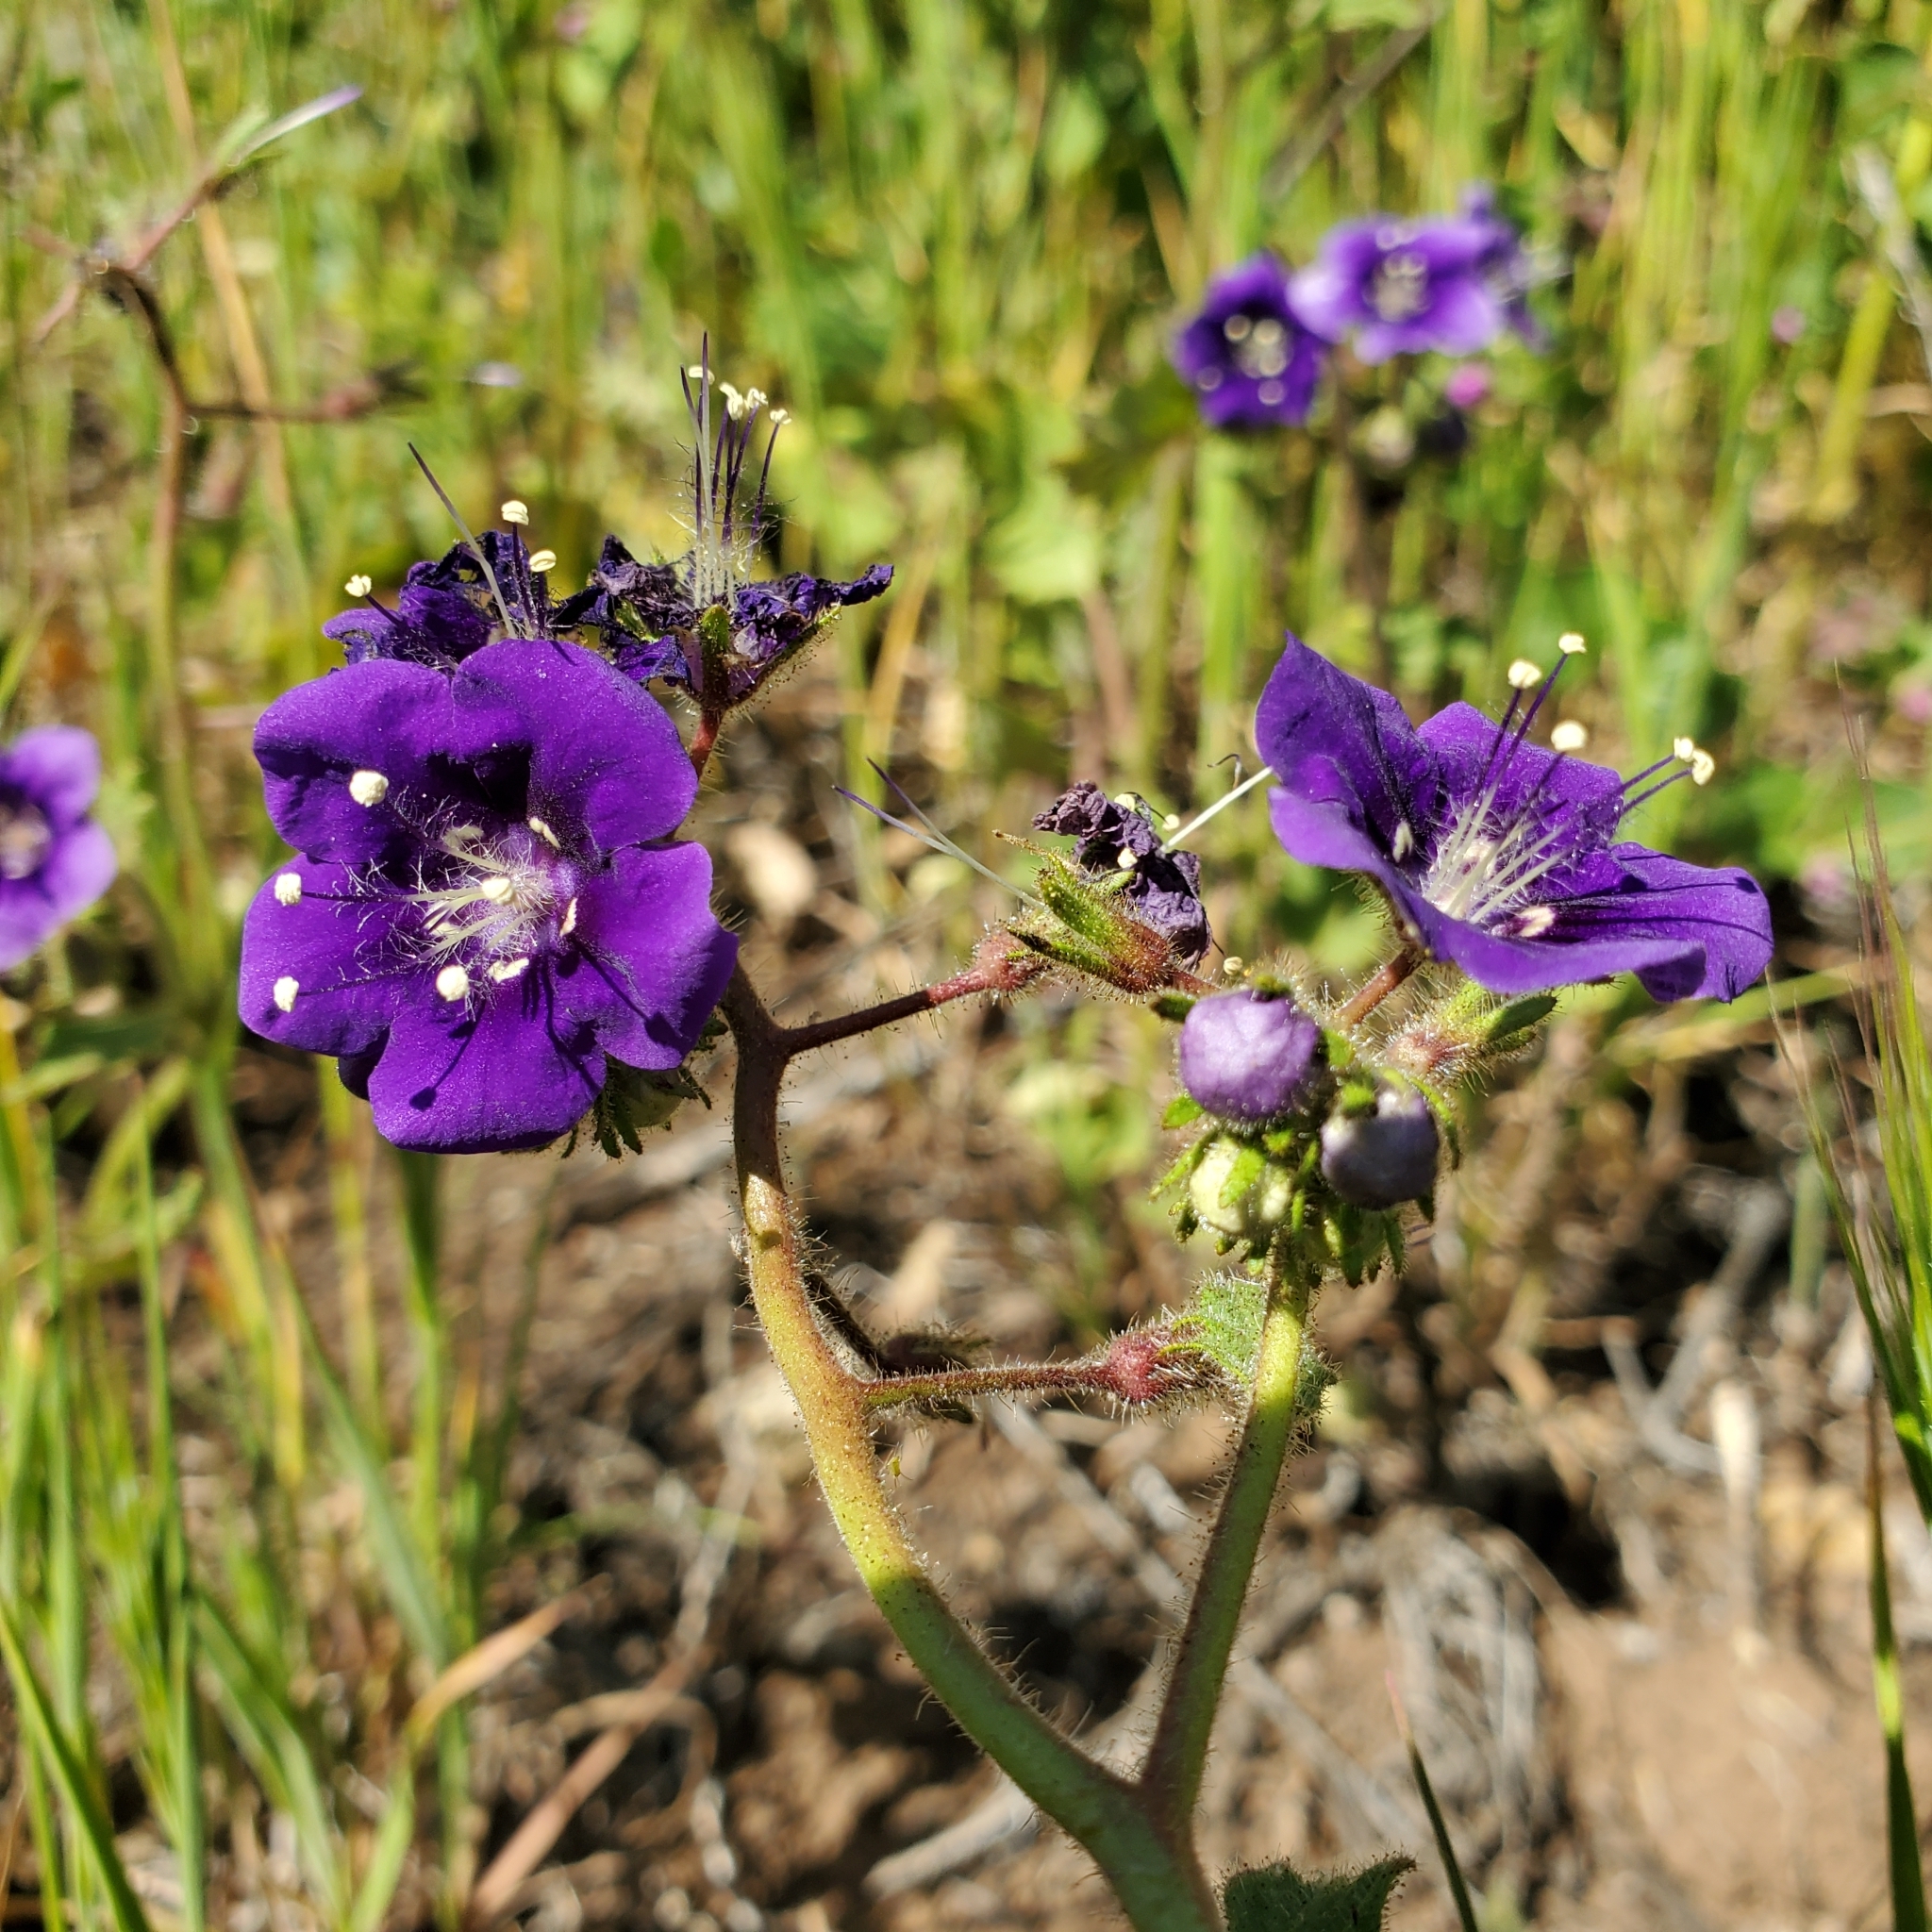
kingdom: Plantae
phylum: Tracheophyta
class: Magnoliopsida
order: Boraginales
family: Hydrophyllaceae
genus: Phacelia
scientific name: Phacelia parryi
